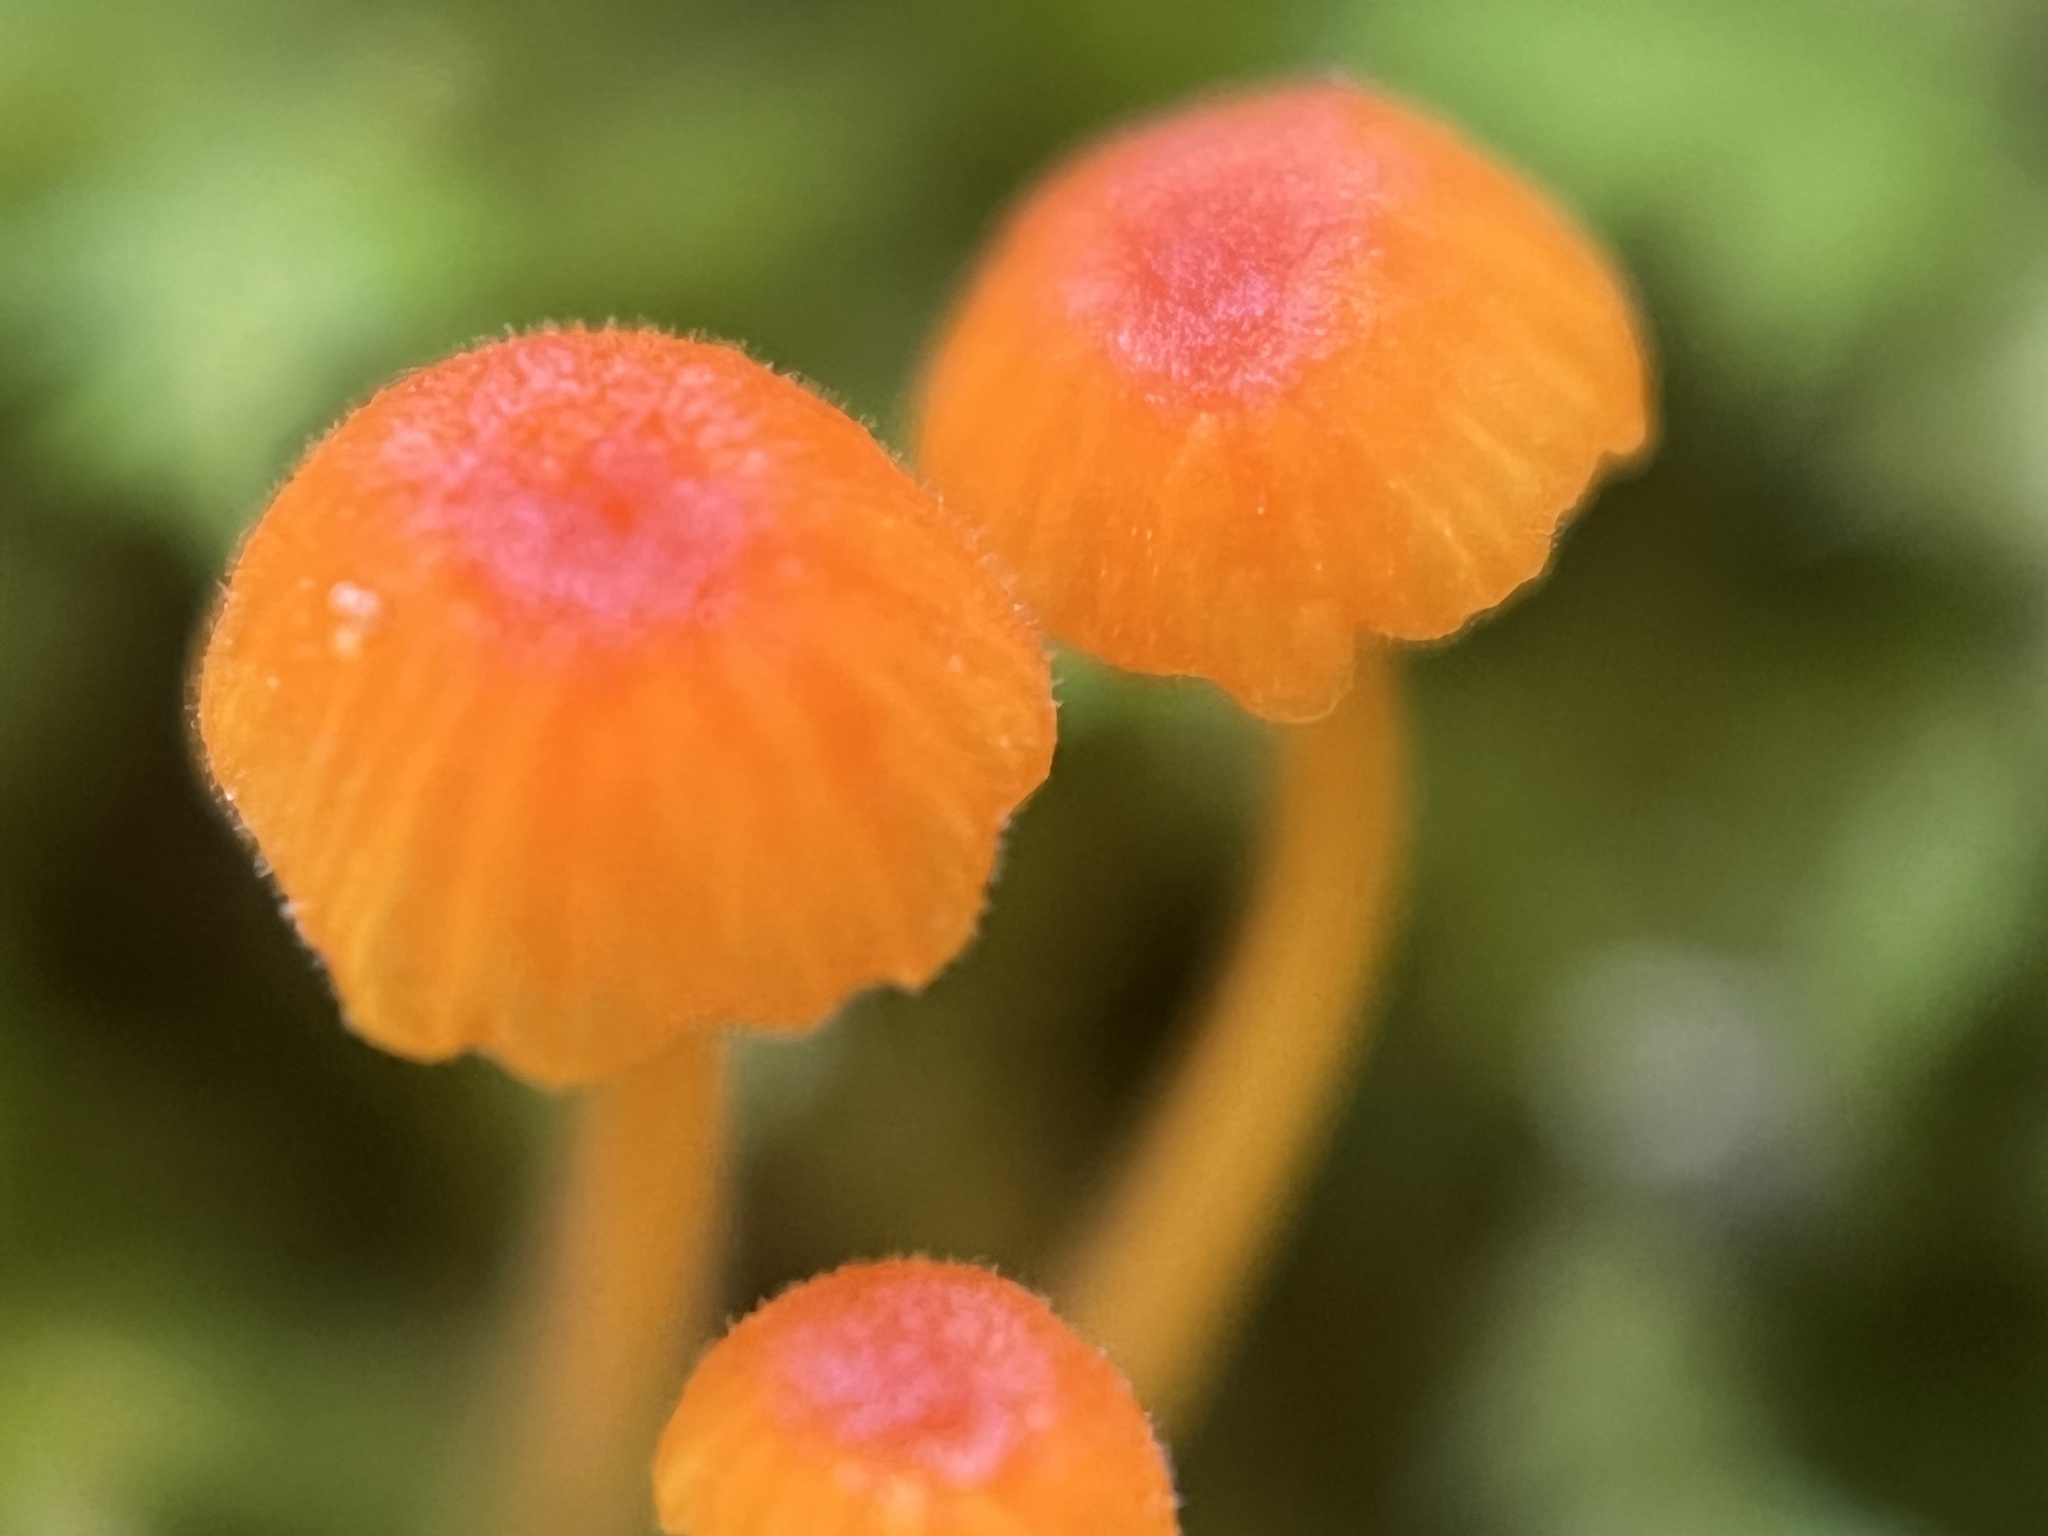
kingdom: Fungi
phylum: Basidiomycota
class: Agaricomycetes
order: Hymenochaetales
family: Rickenellaceae
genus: Rickenella
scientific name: Rickenella fibula
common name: Orange mosscap
